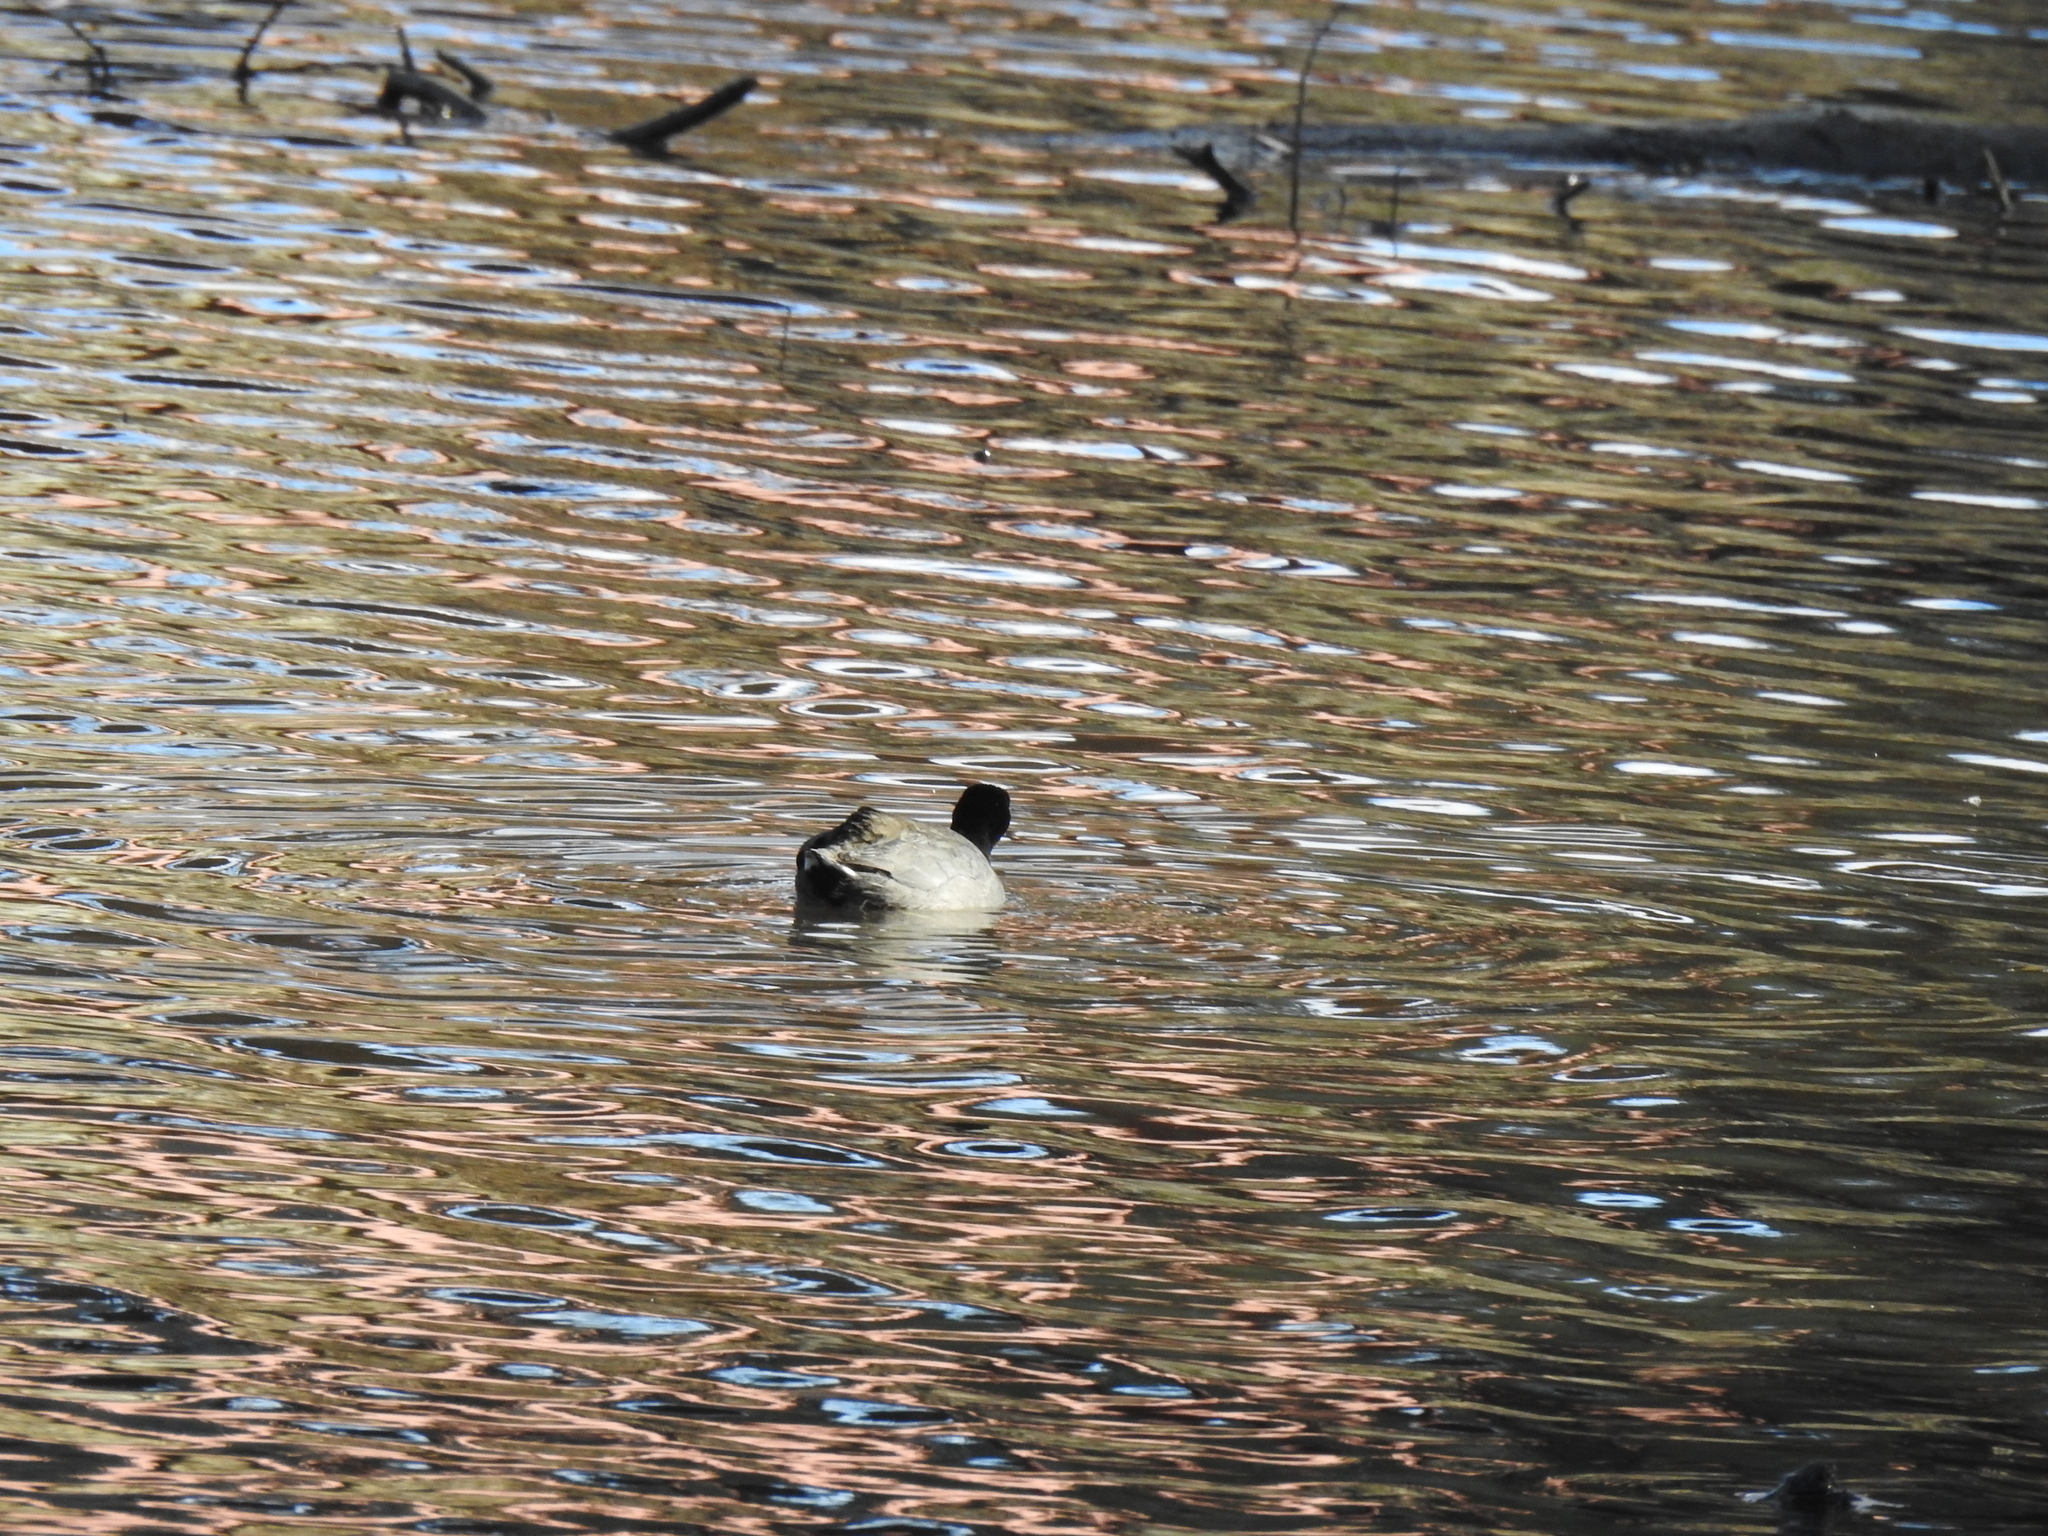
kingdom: Animalia
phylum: Chordata
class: Aves
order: Gruiformes
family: Rallidae
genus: Fulica
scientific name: Fulica americana
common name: American coot
